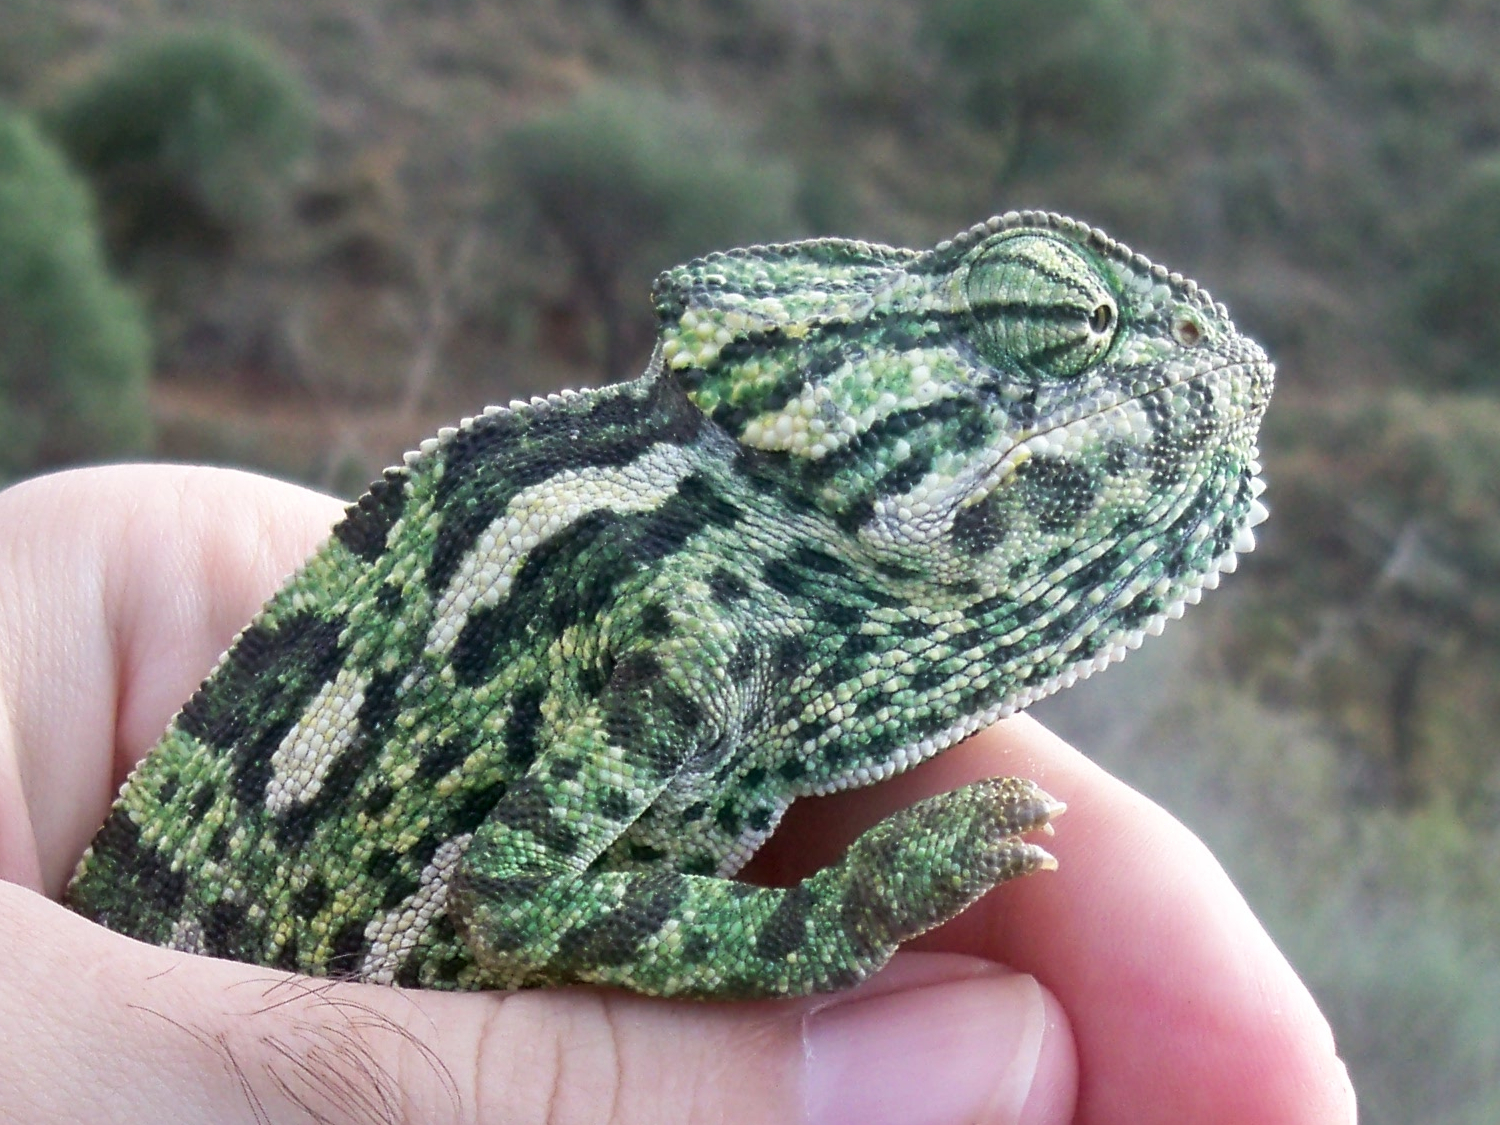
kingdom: Animalia
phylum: Chordata
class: Squamata
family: Chamaeleonidae
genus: Chamaeleo
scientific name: Chamaeleo chamaeleon
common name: Mediterranean chameleon
